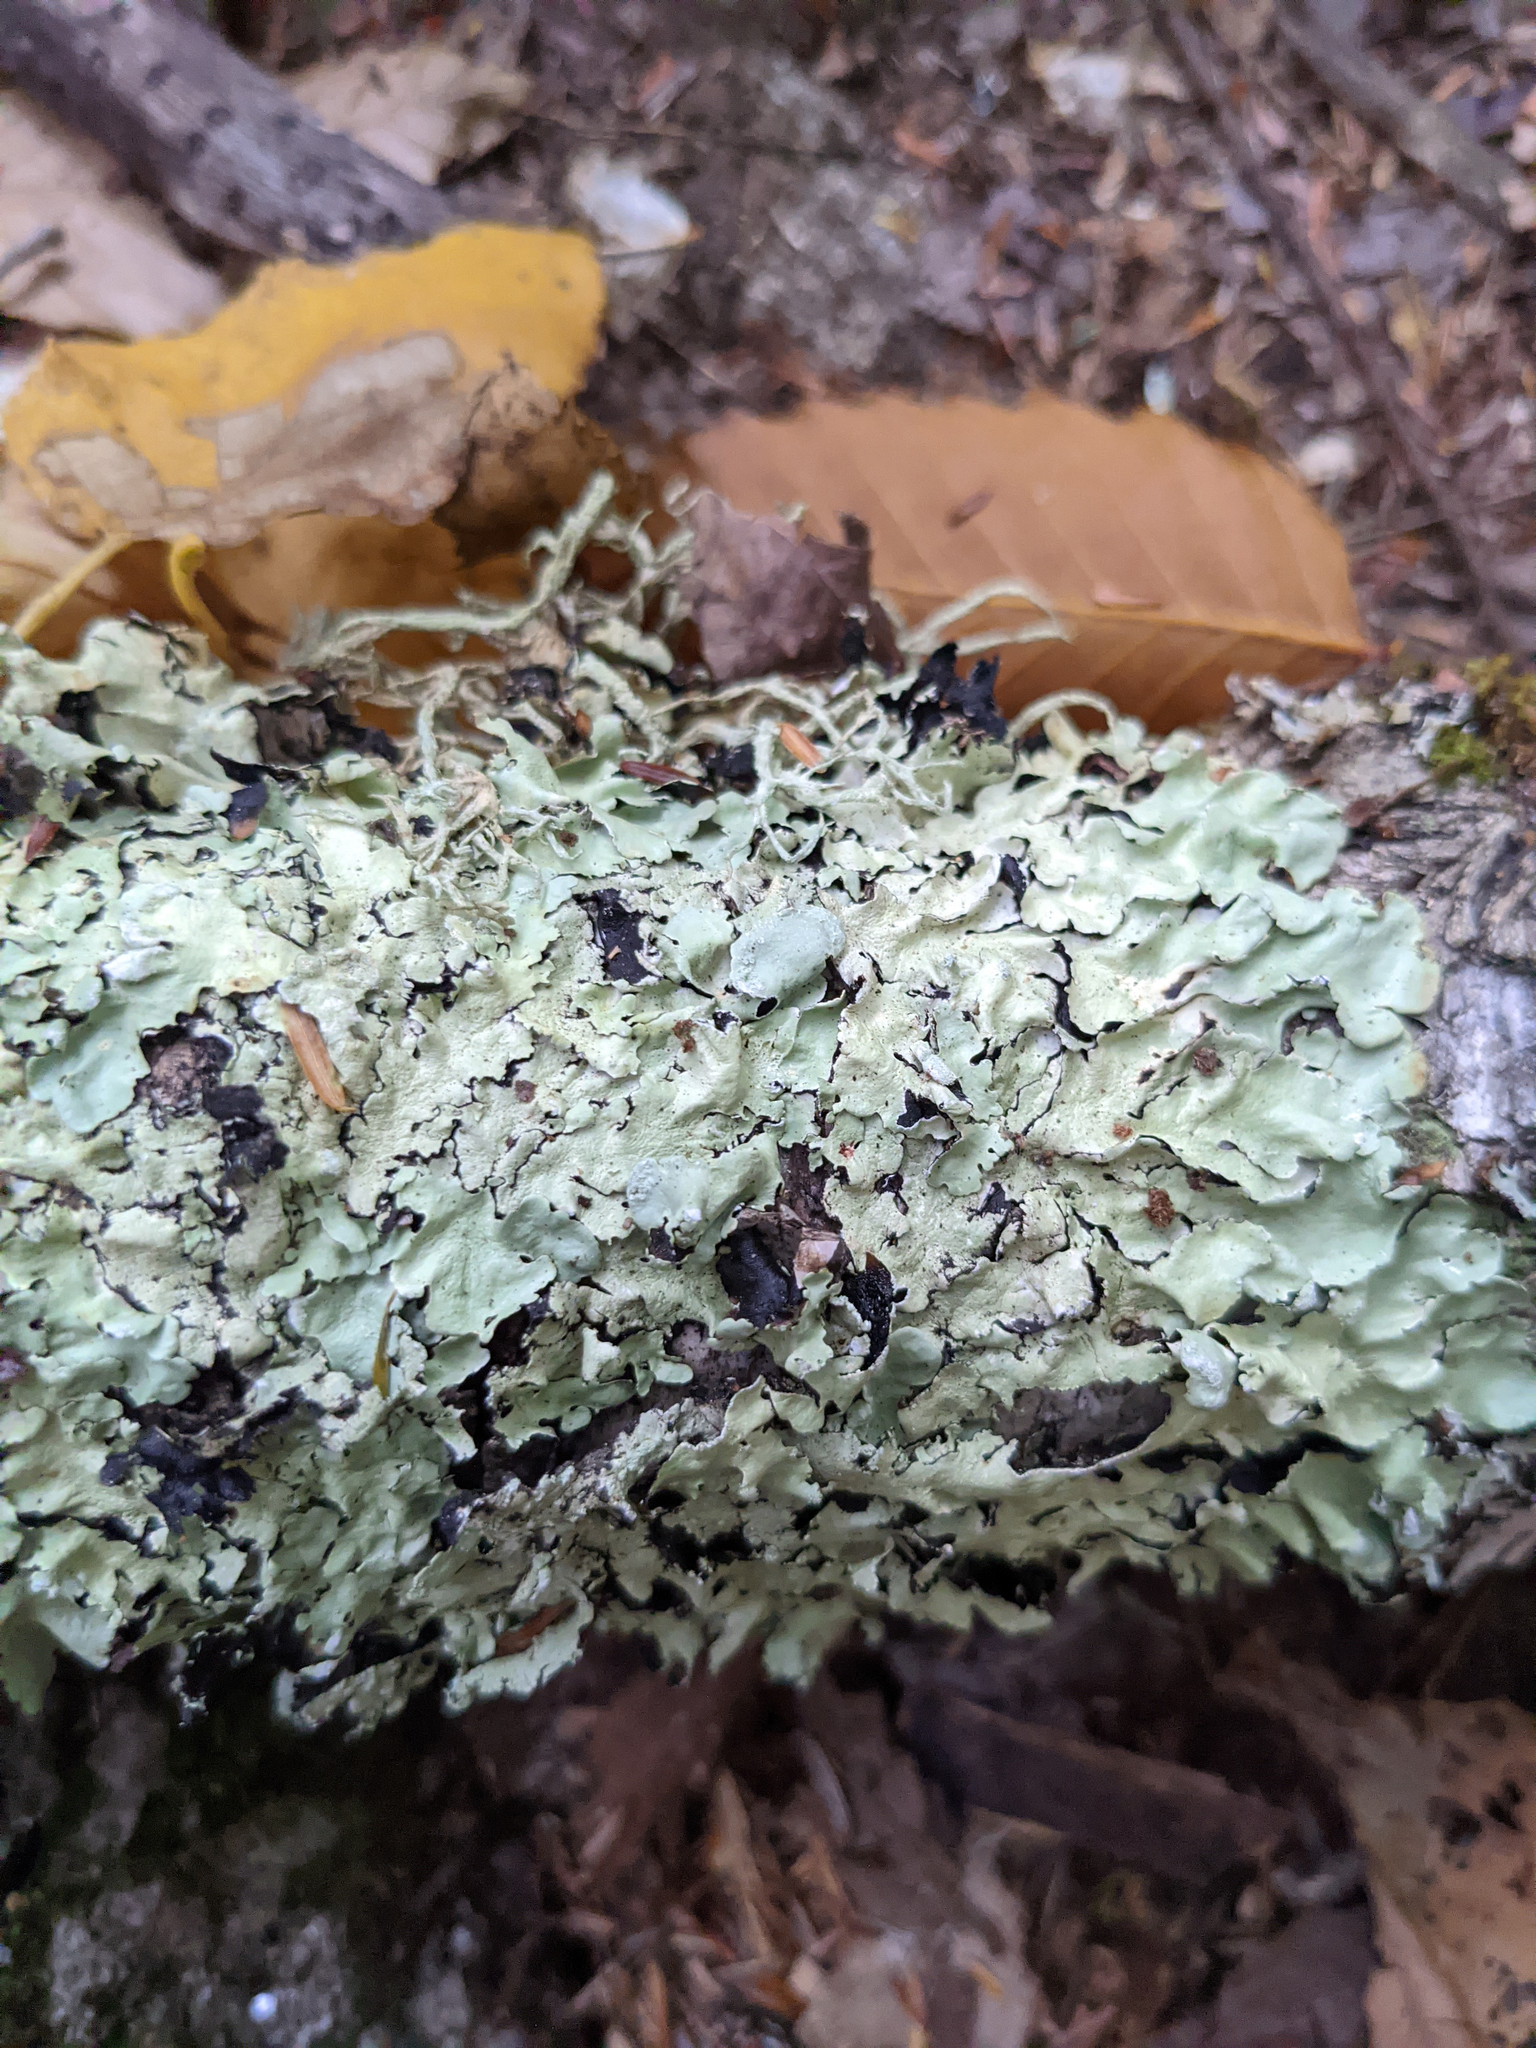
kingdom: Fungi
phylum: Ascomycota
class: Lecanoromycetes
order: Lecanorales
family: Parmeliaceae
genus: Flavoparmelia
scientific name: Flavoparmelia caperata
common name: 40-mile per hour lichen
